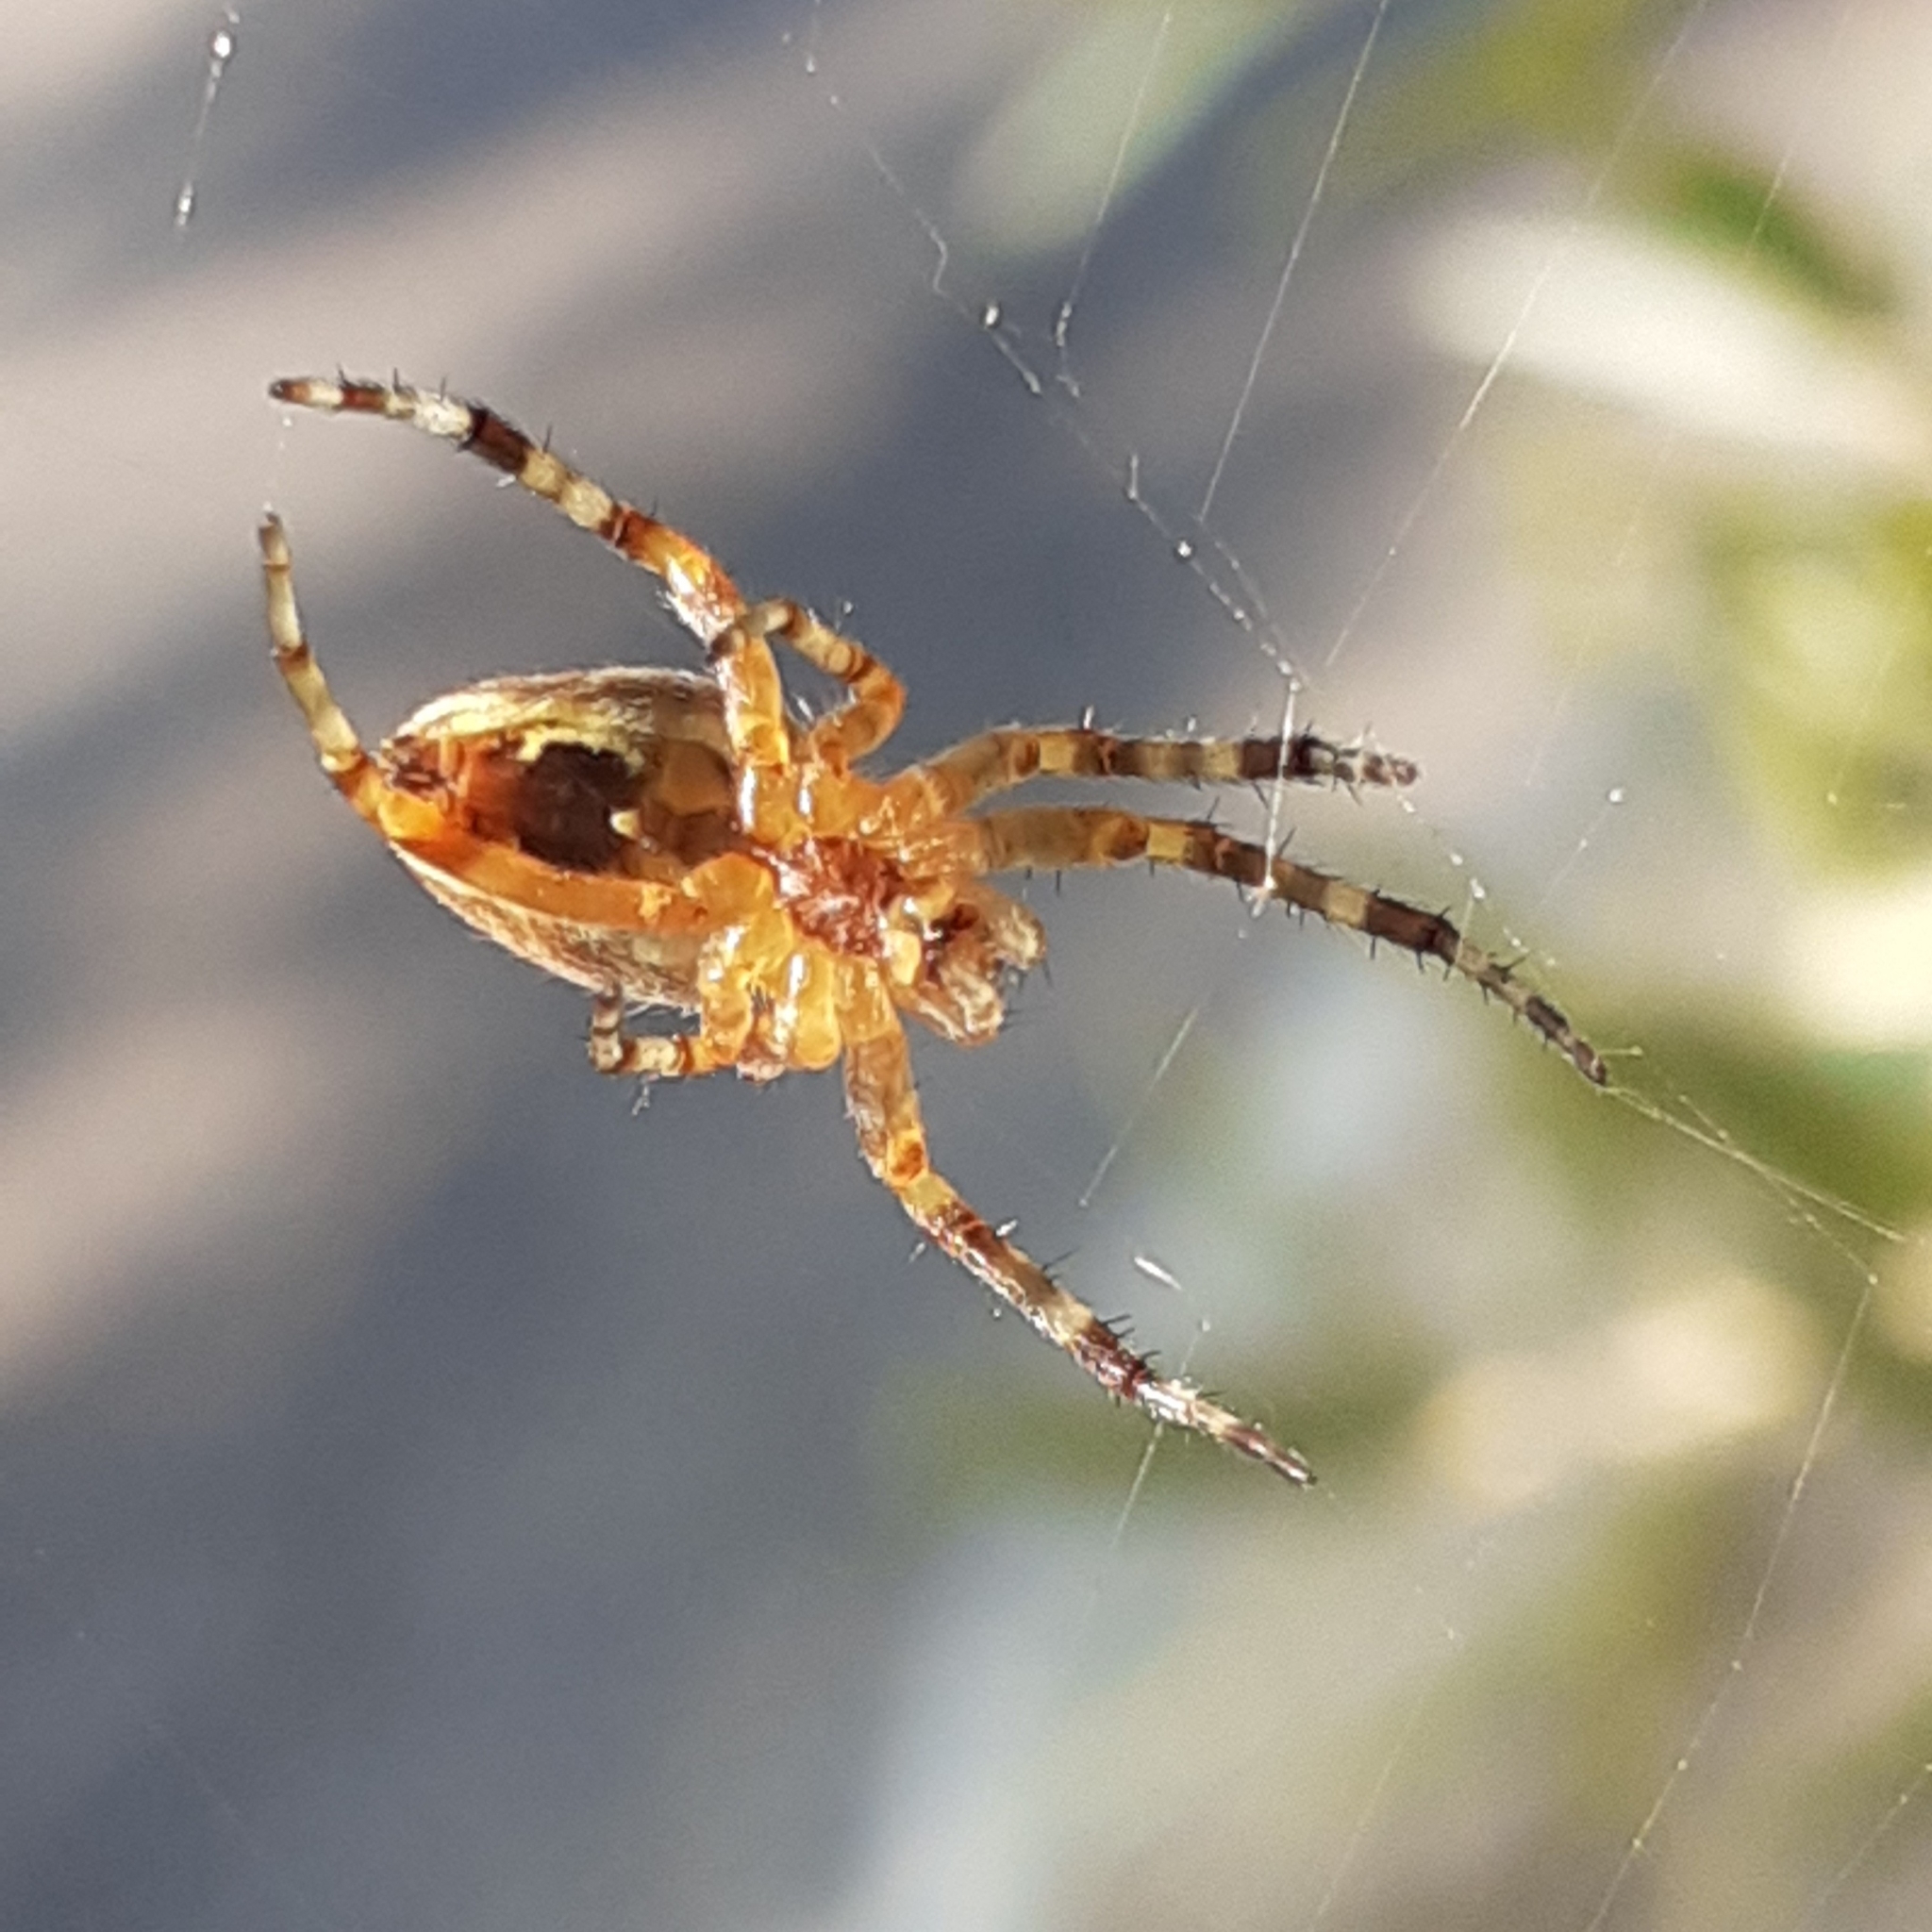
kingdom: Animalia
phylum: Arthropoda
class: Arachnida
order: Araneae
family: Araneidae
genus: Araneus
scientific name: Araneus diadematus
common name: Cross orbweaver
